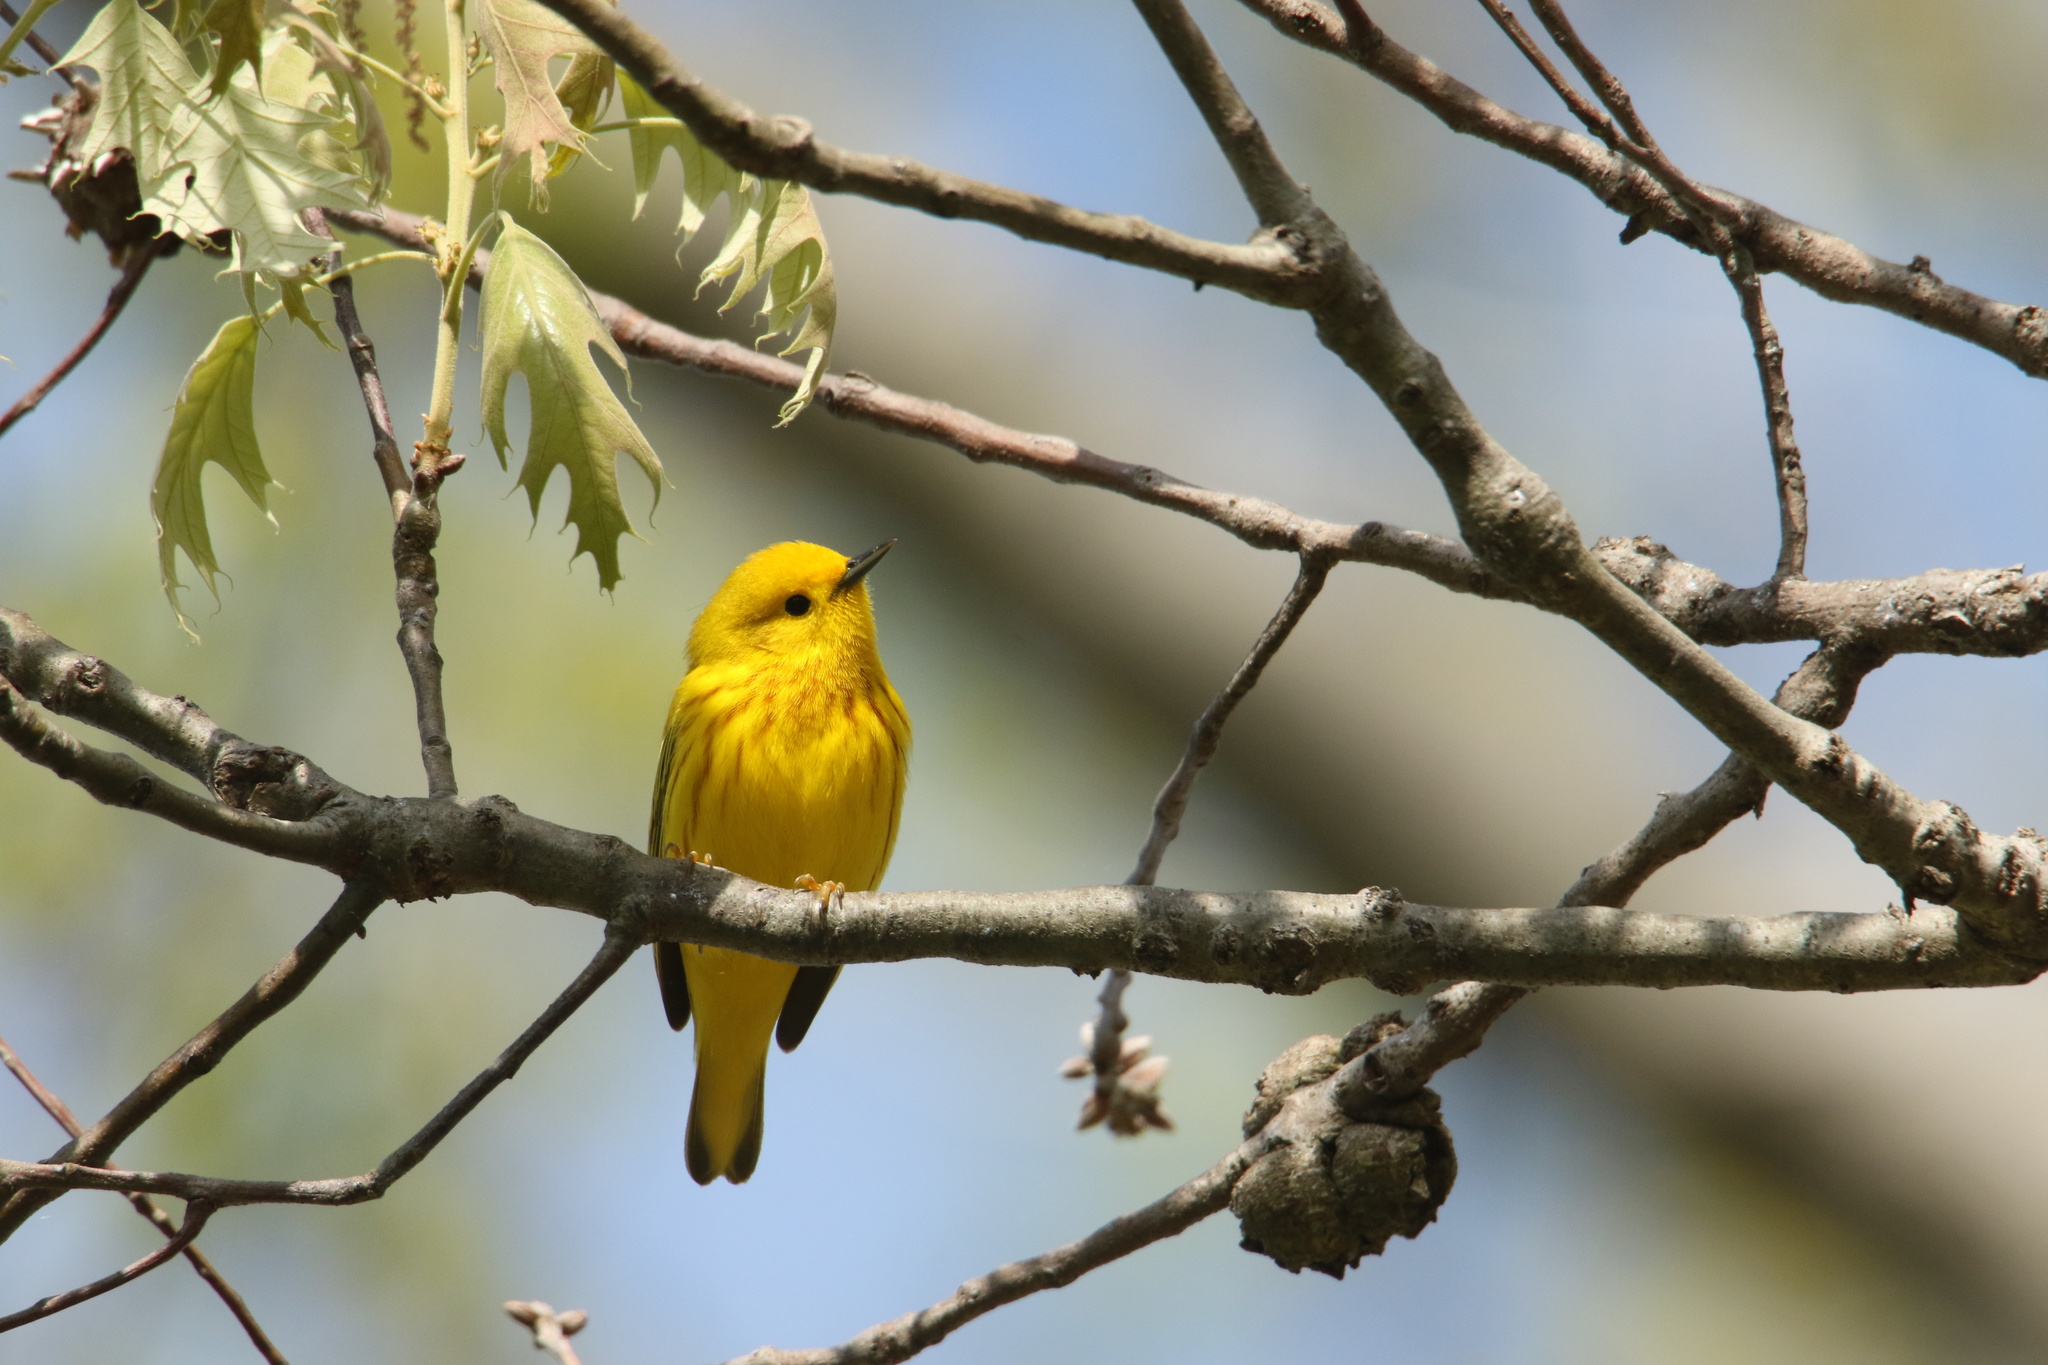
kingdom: Animalia
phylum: Chordata
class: Aves
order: Passeriformes
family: Parulidae
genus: Setophaga
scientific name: Setophaga petechia
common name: Yellow warbler
